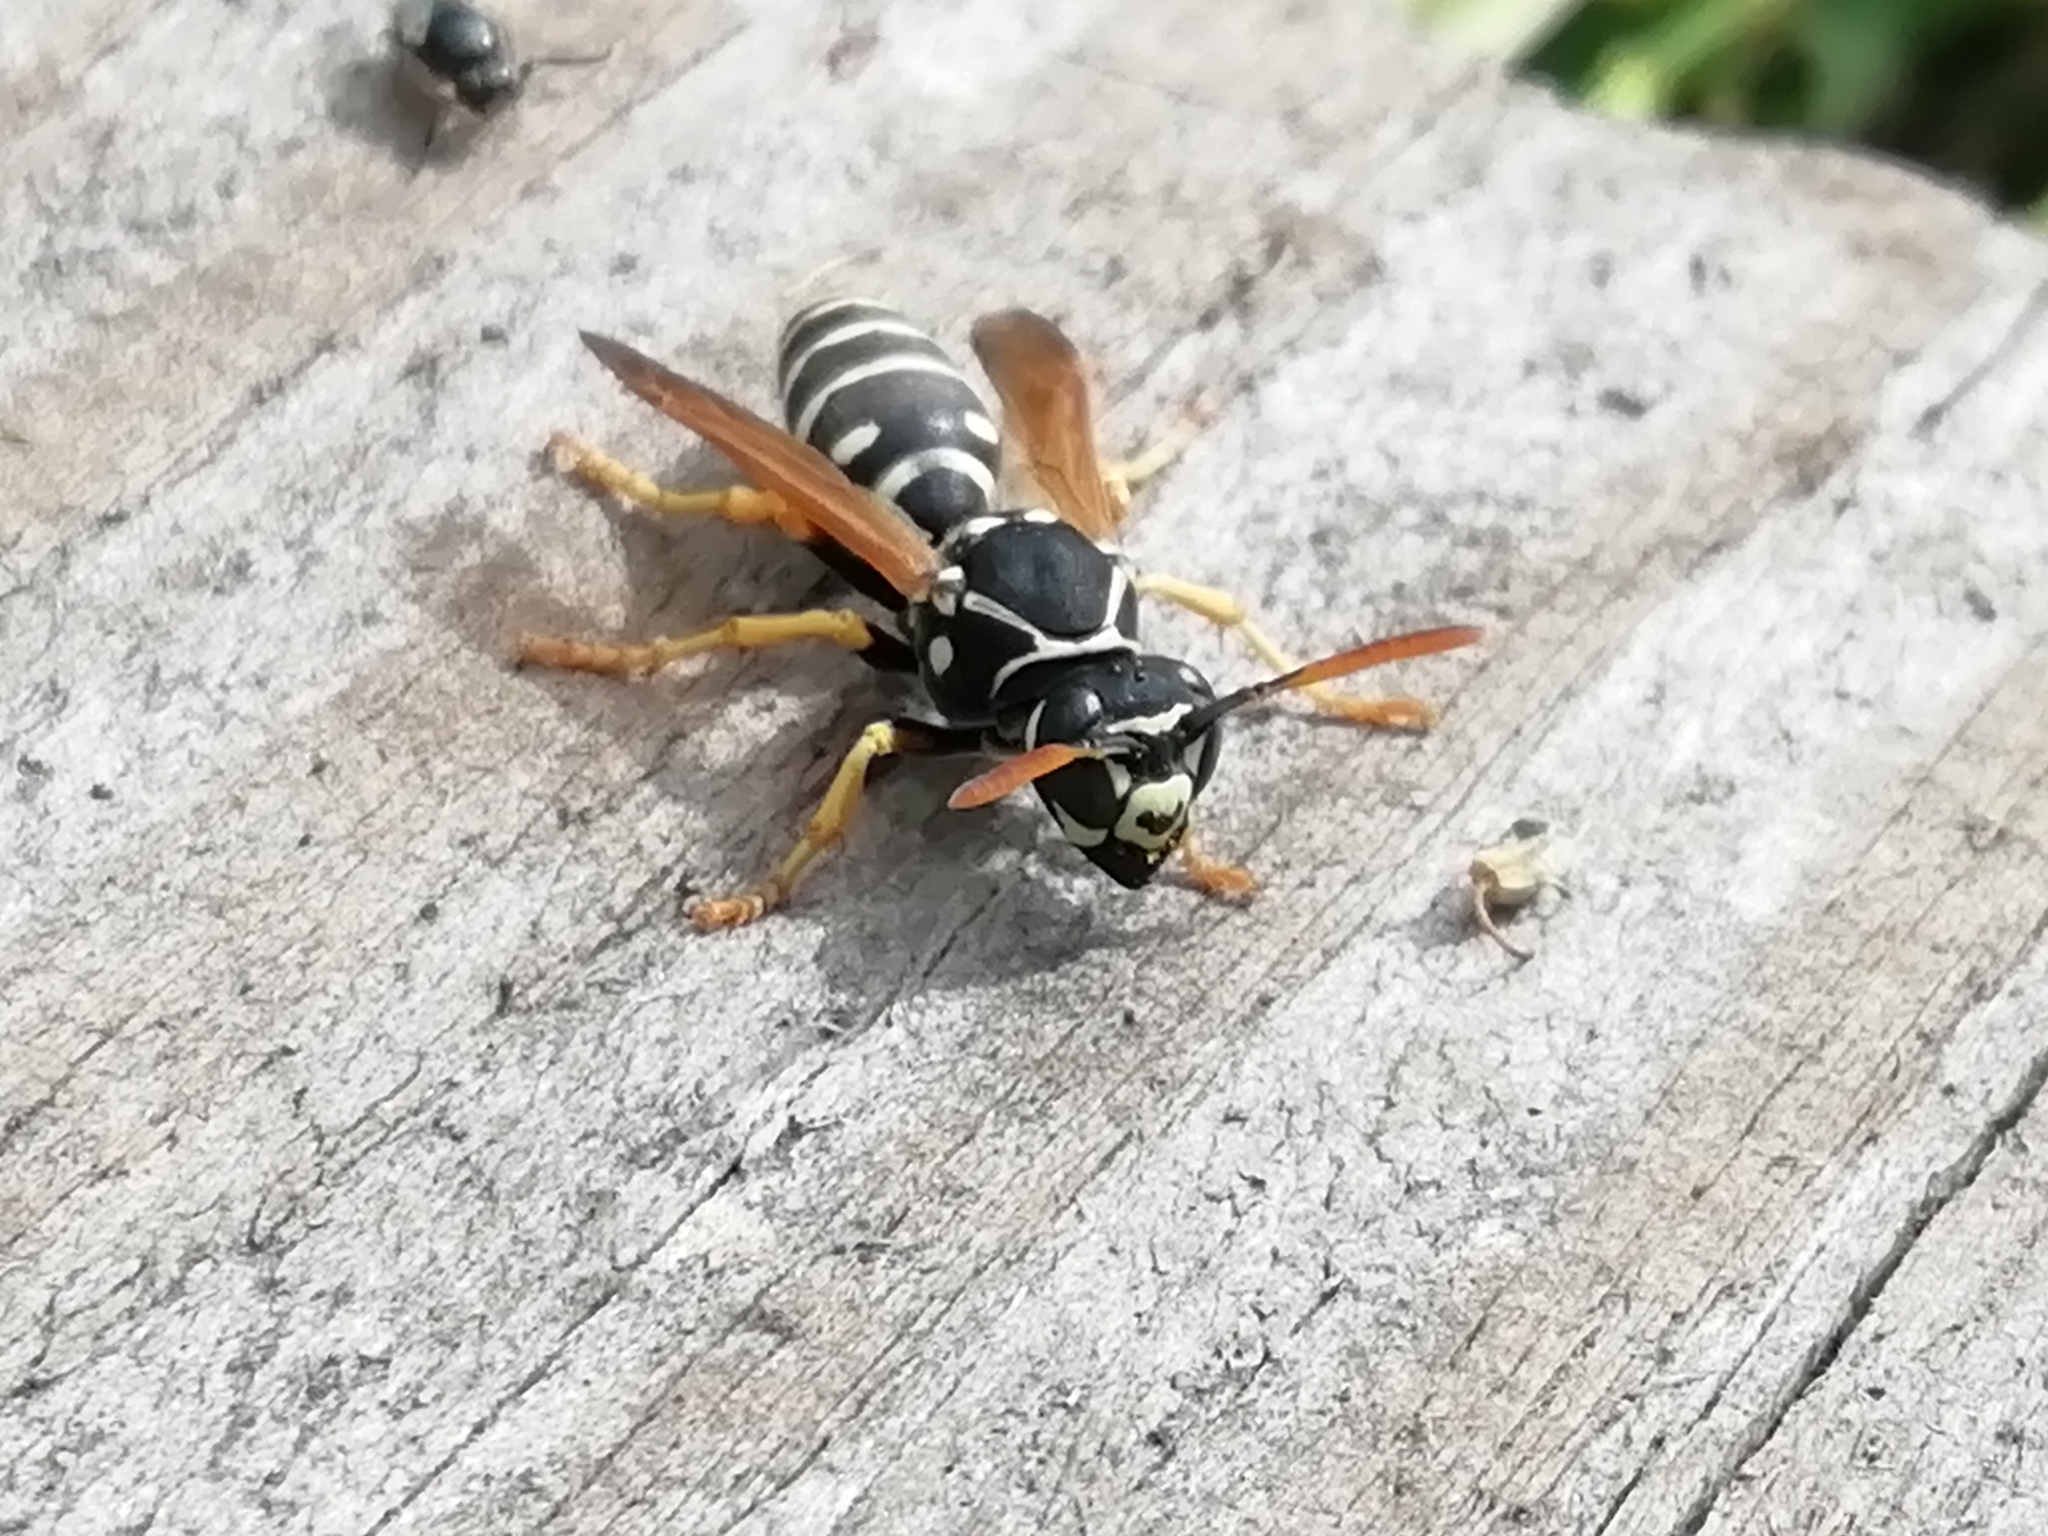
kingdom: Animalia
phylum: Arthropoda
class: Insecta
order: Hymenoptera
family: Eumenidae
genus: Polistes
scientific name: Polistes nimpha
